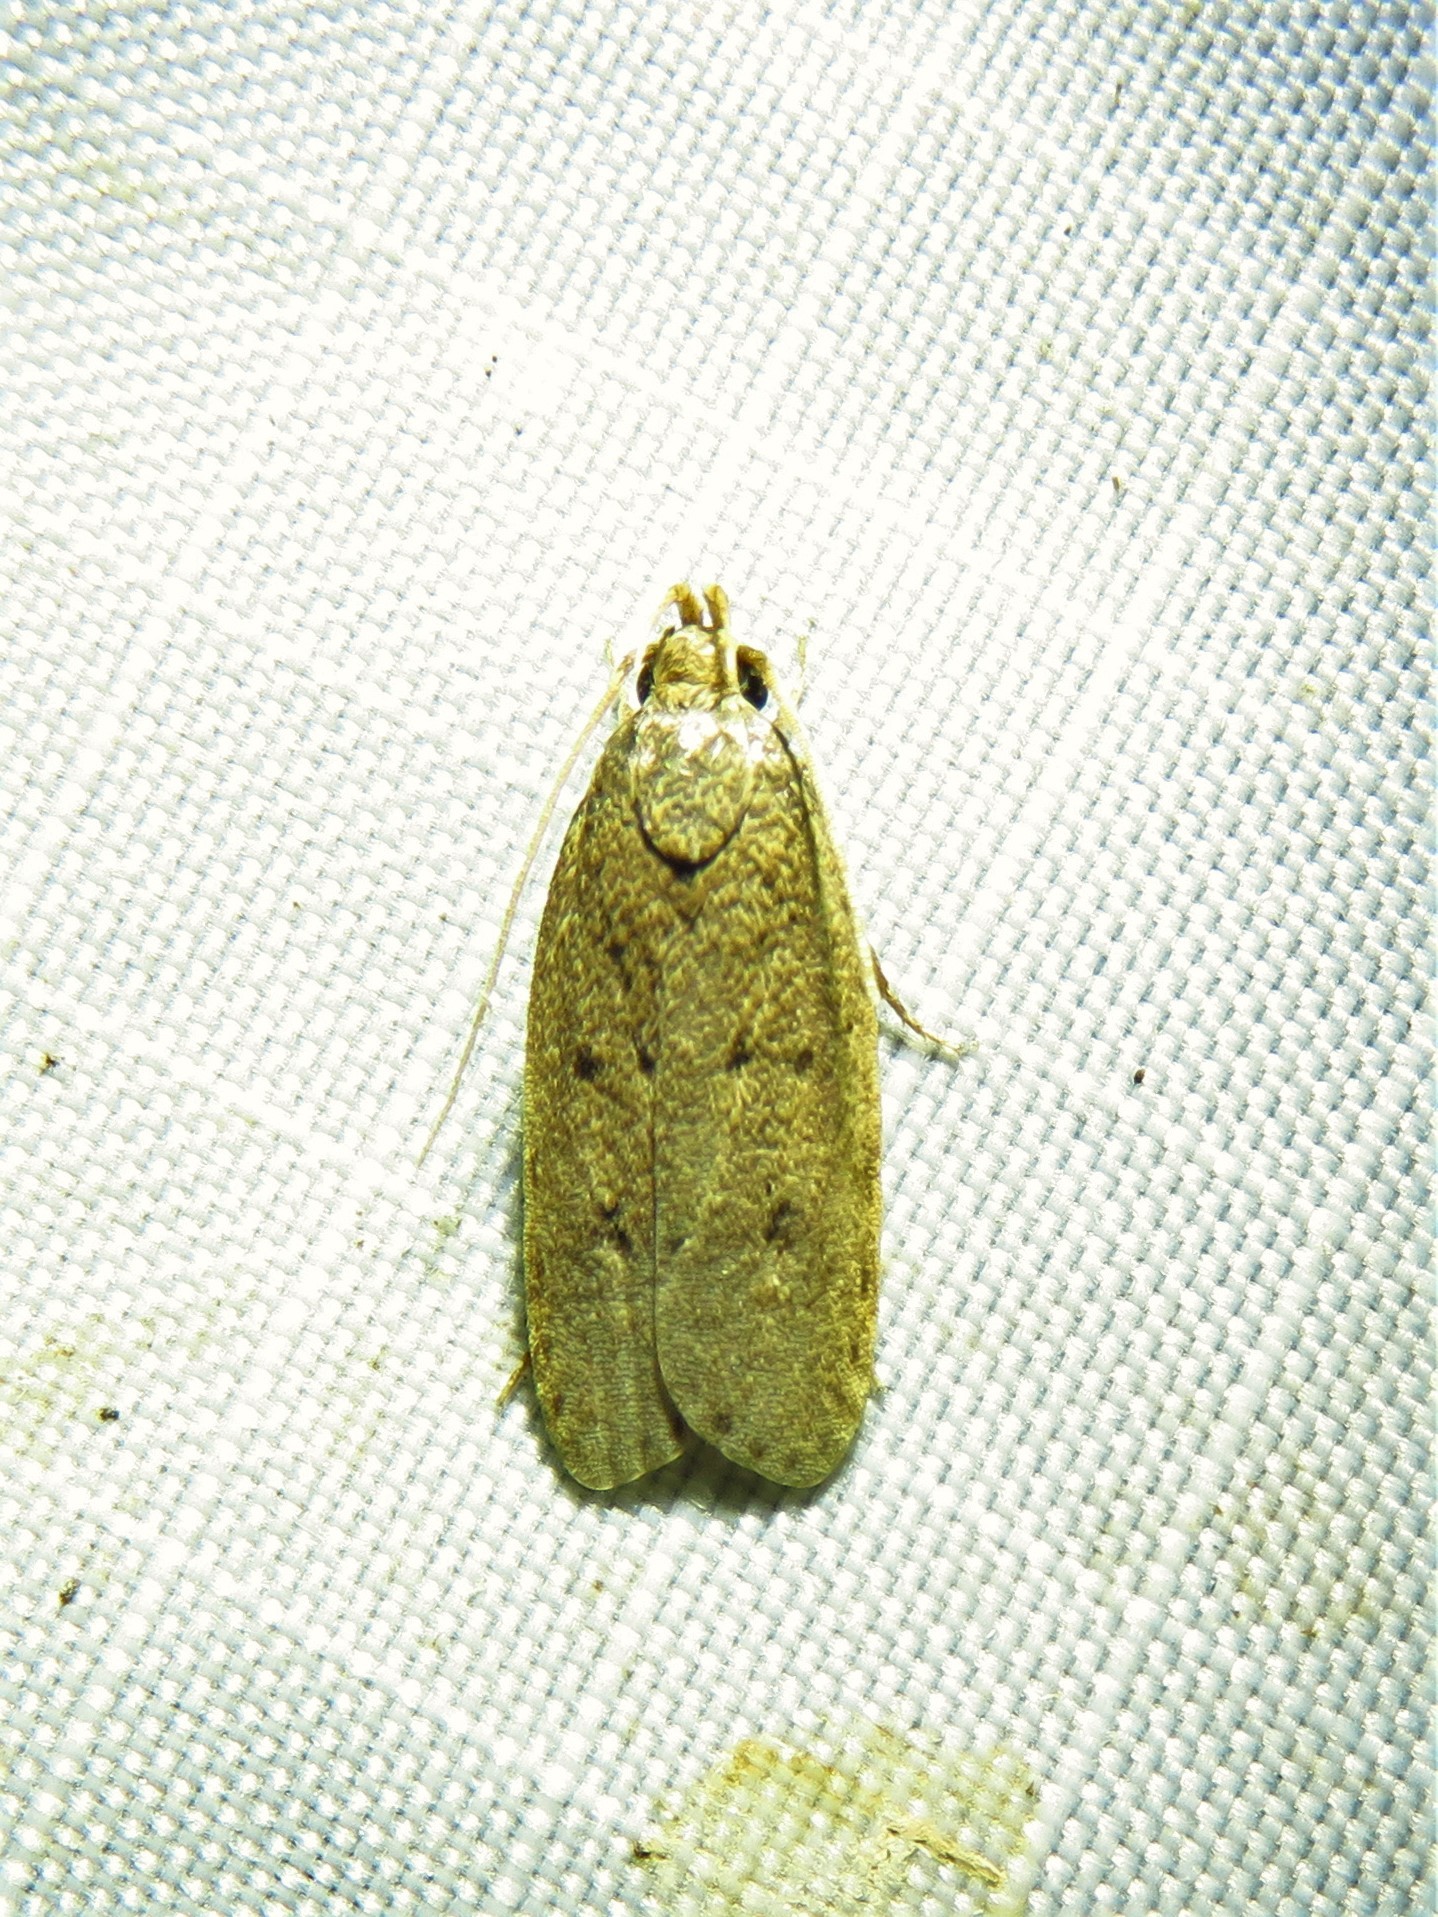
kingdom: Animalia
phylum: Arthropoda
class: Insecta
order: Lepidoptera
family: Autostichidae
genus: Autosticha
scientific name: Autosticha kyotensis
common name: Kyoto moth
